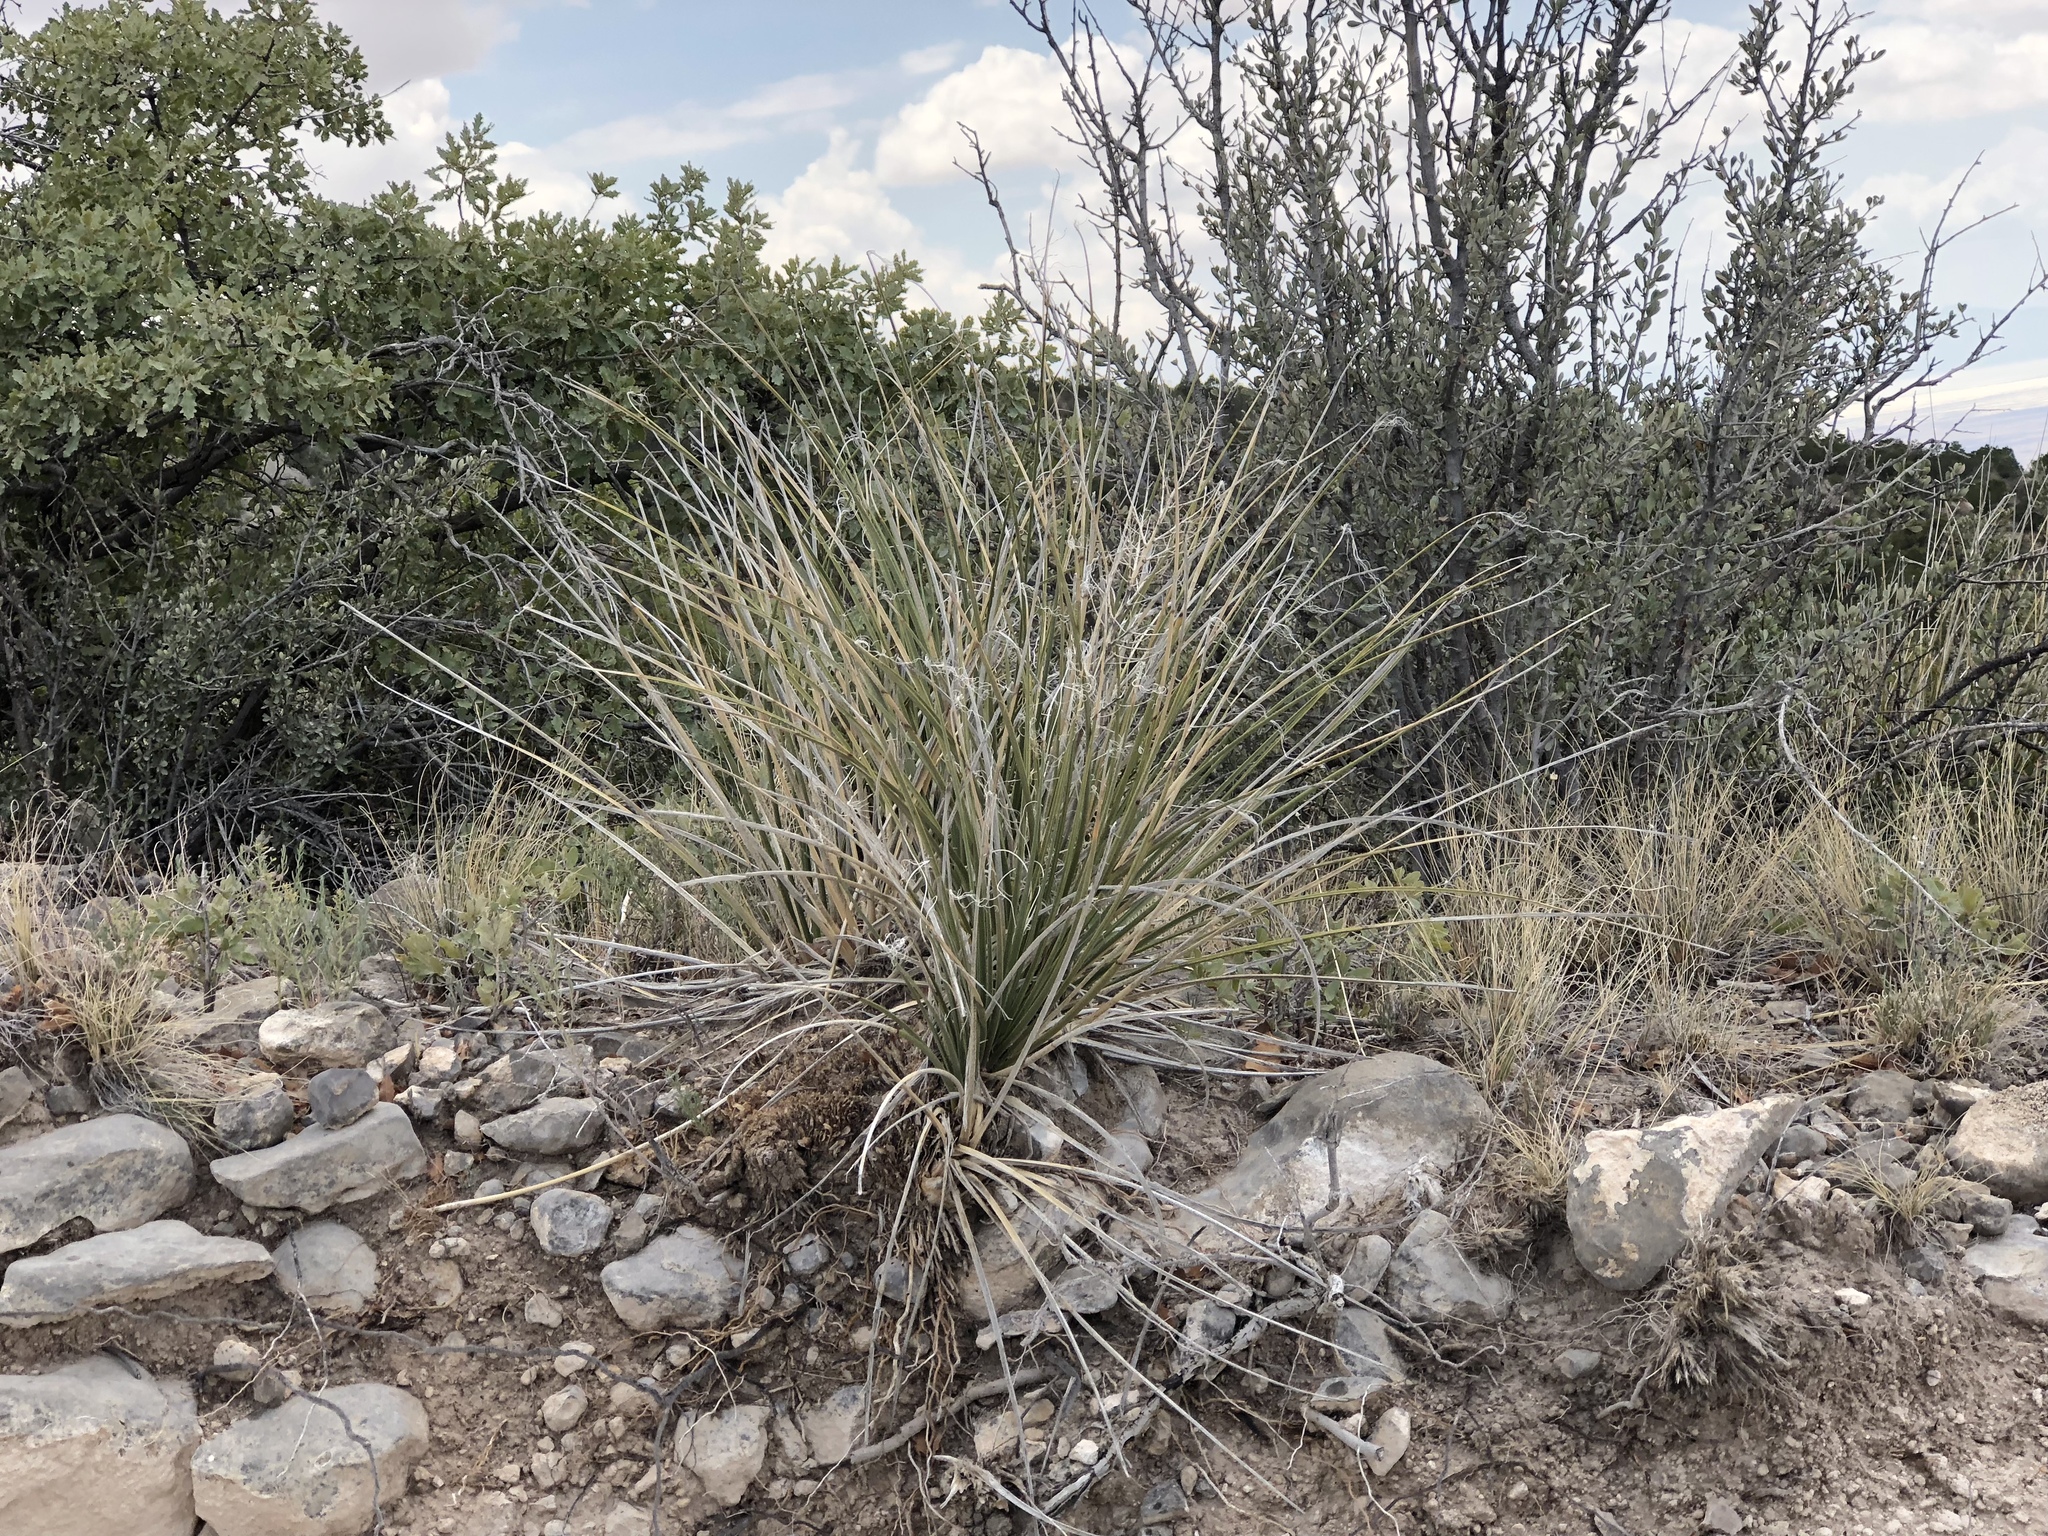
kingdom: Plantae
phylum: Tracheophyta
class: Liliopsida
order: Asparagales
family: Asparagaceae
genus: Nolina
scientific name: Nolina microcarpa
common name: Bear-grass
